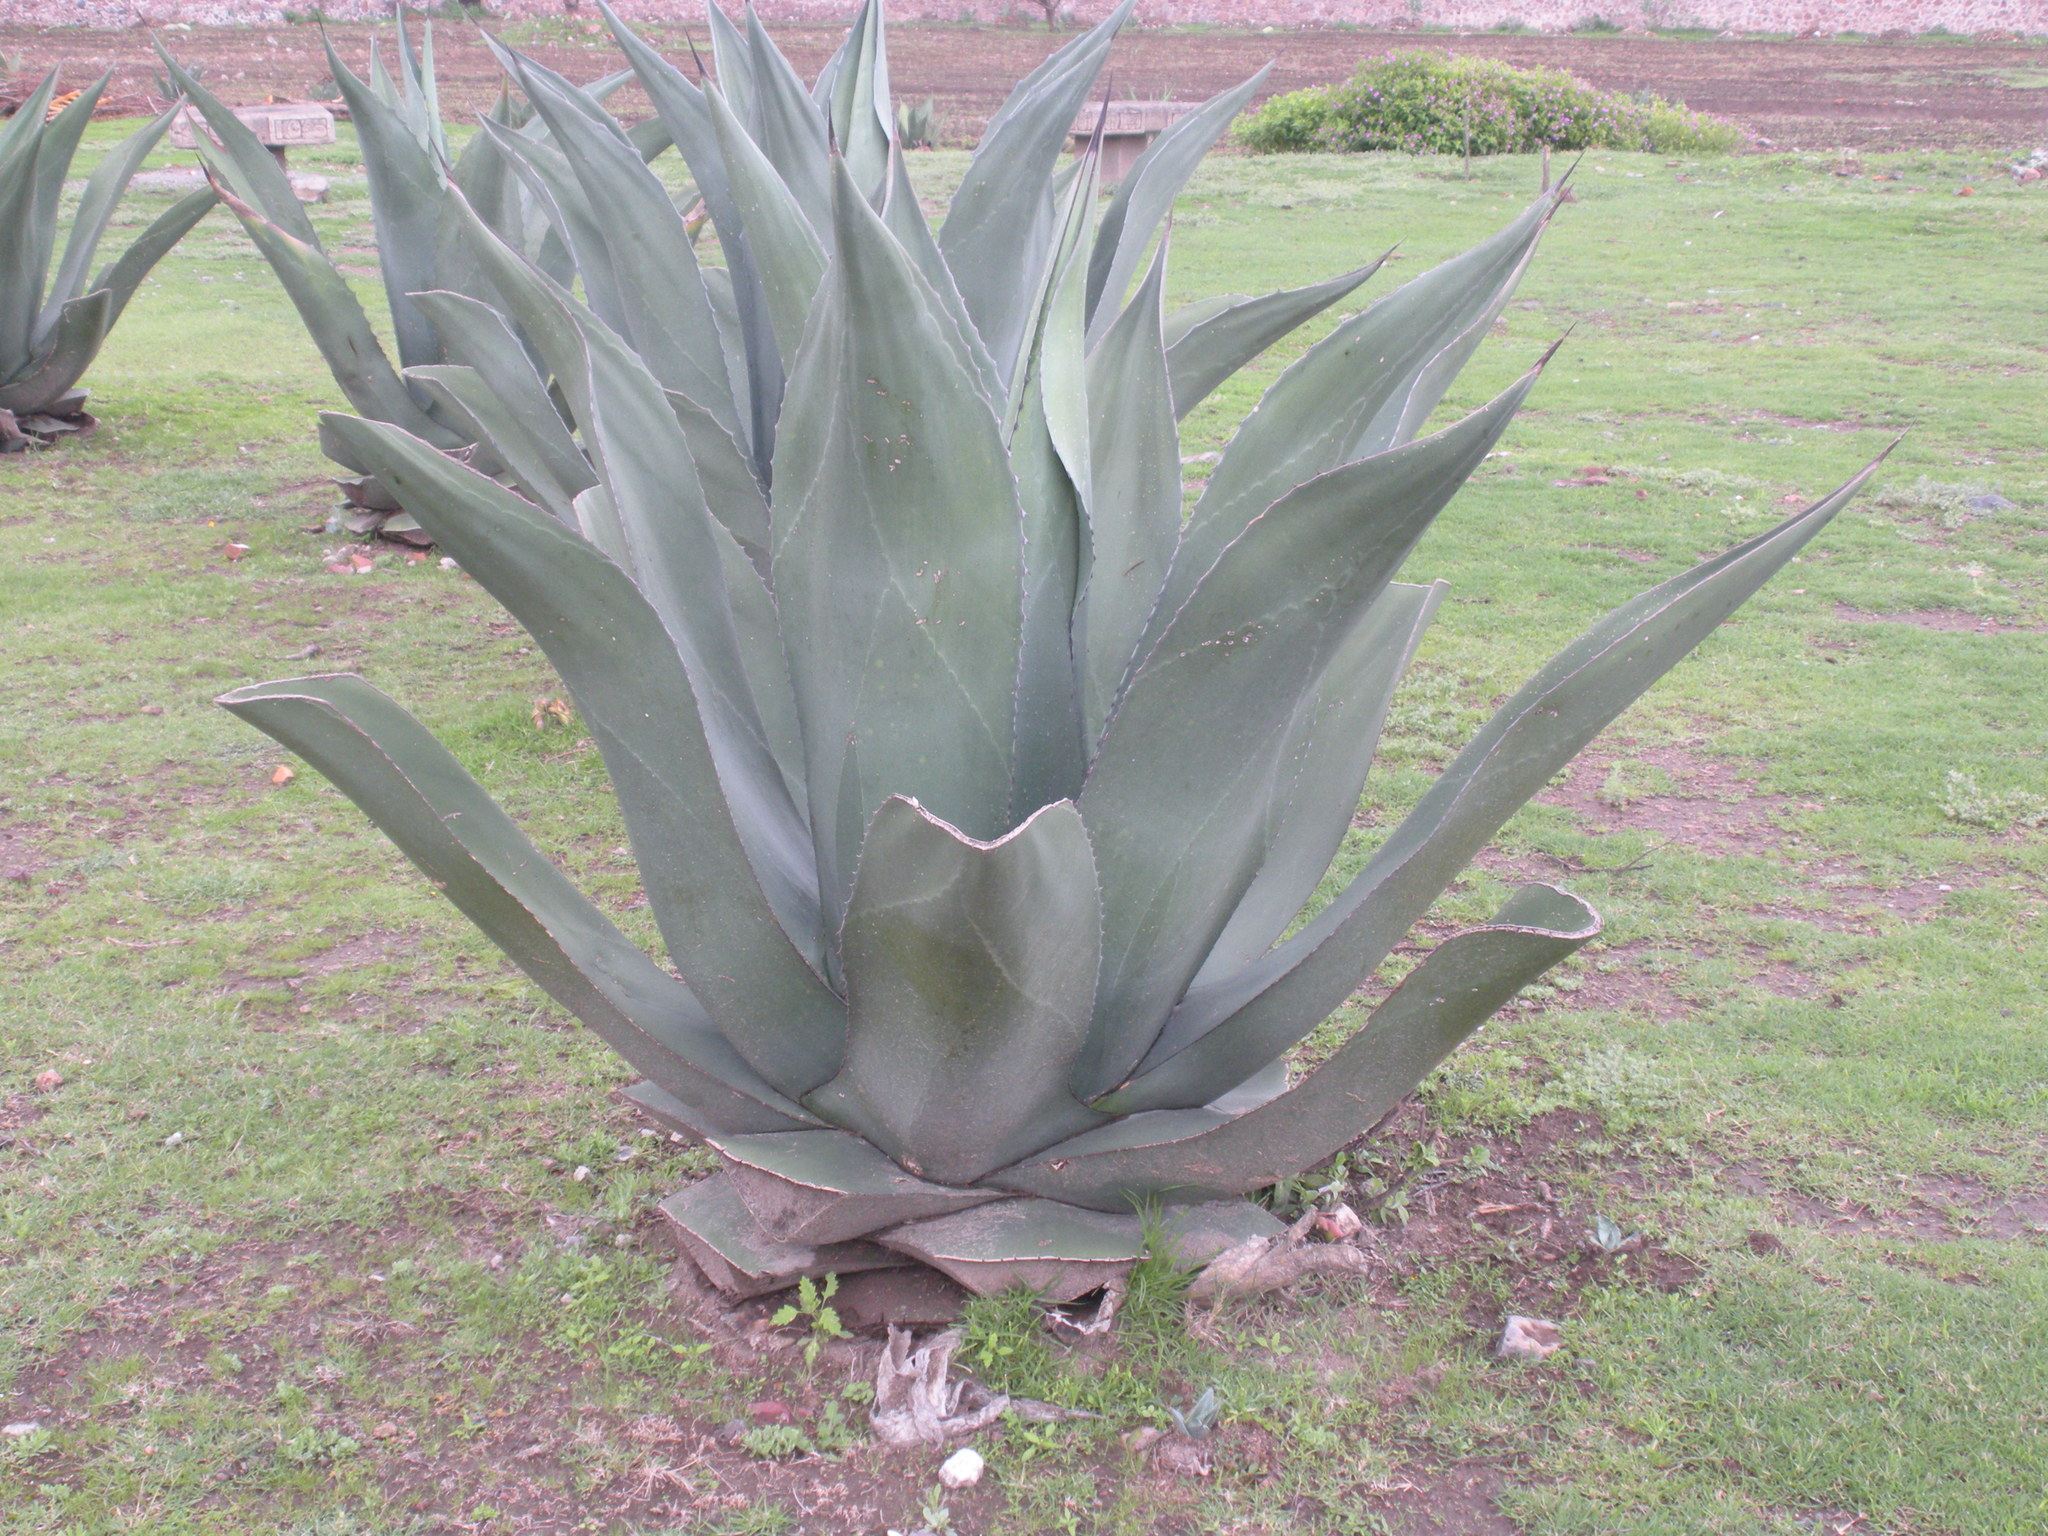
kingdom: Plantae
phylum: Tracheophyta
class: Liliopsida
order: Asparagales
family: Asparagaceae
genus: Agave
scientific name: Agave salmiana
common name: Pulque agave
